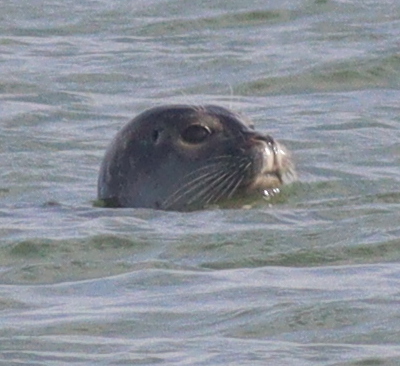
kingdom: Animalia
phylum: Chordata
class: Mammalia
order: Carnivora
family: Phocidae
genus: Phoca
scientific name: Phoca vitulina
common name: Harbor seal
